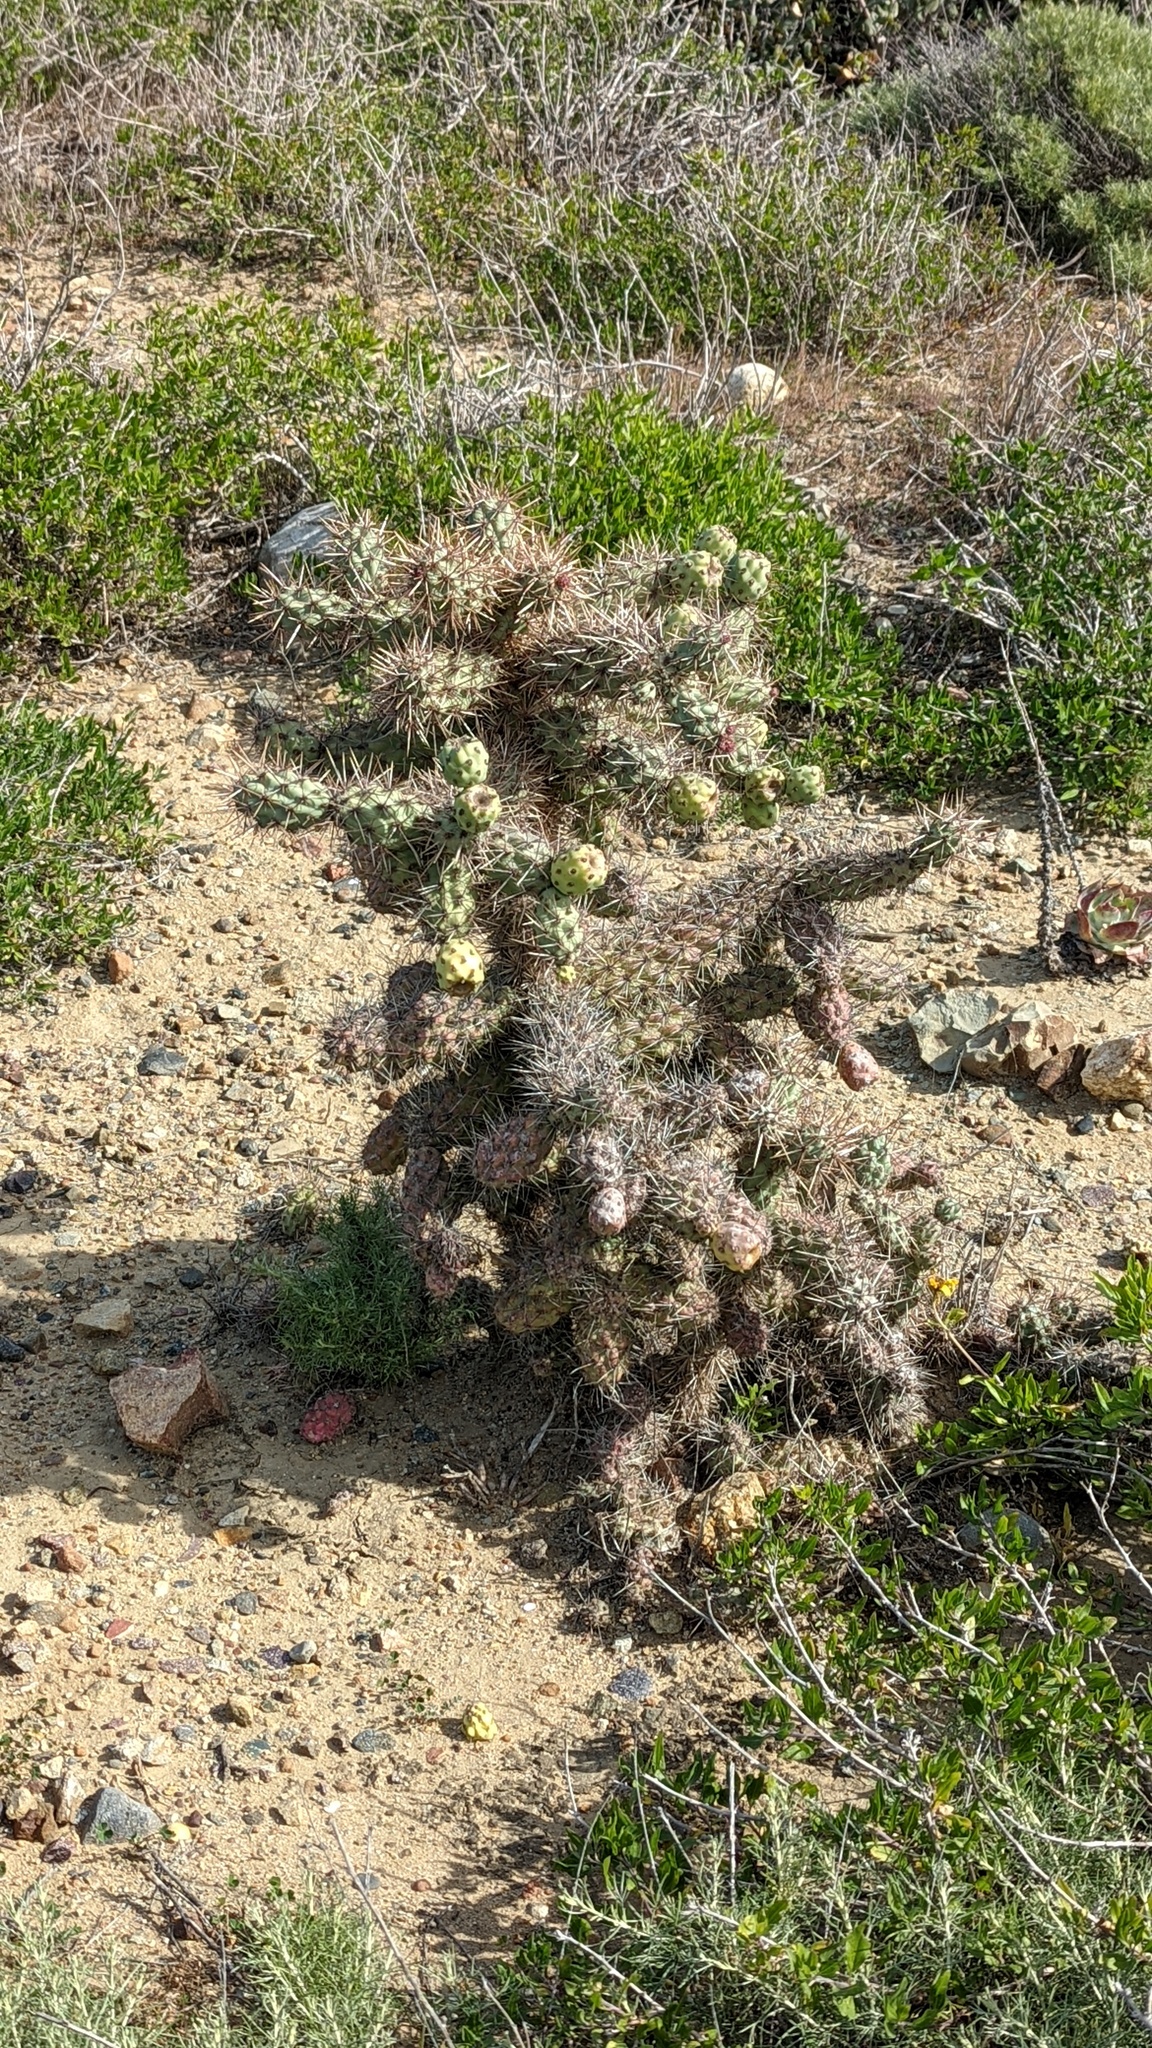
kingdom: Plantae
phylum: Tracheophyta
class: Magnoliopsida
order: Caryophyllales
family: Cactaceae
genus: Cylindropuntia
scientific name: Cylindropuntia prolifera
